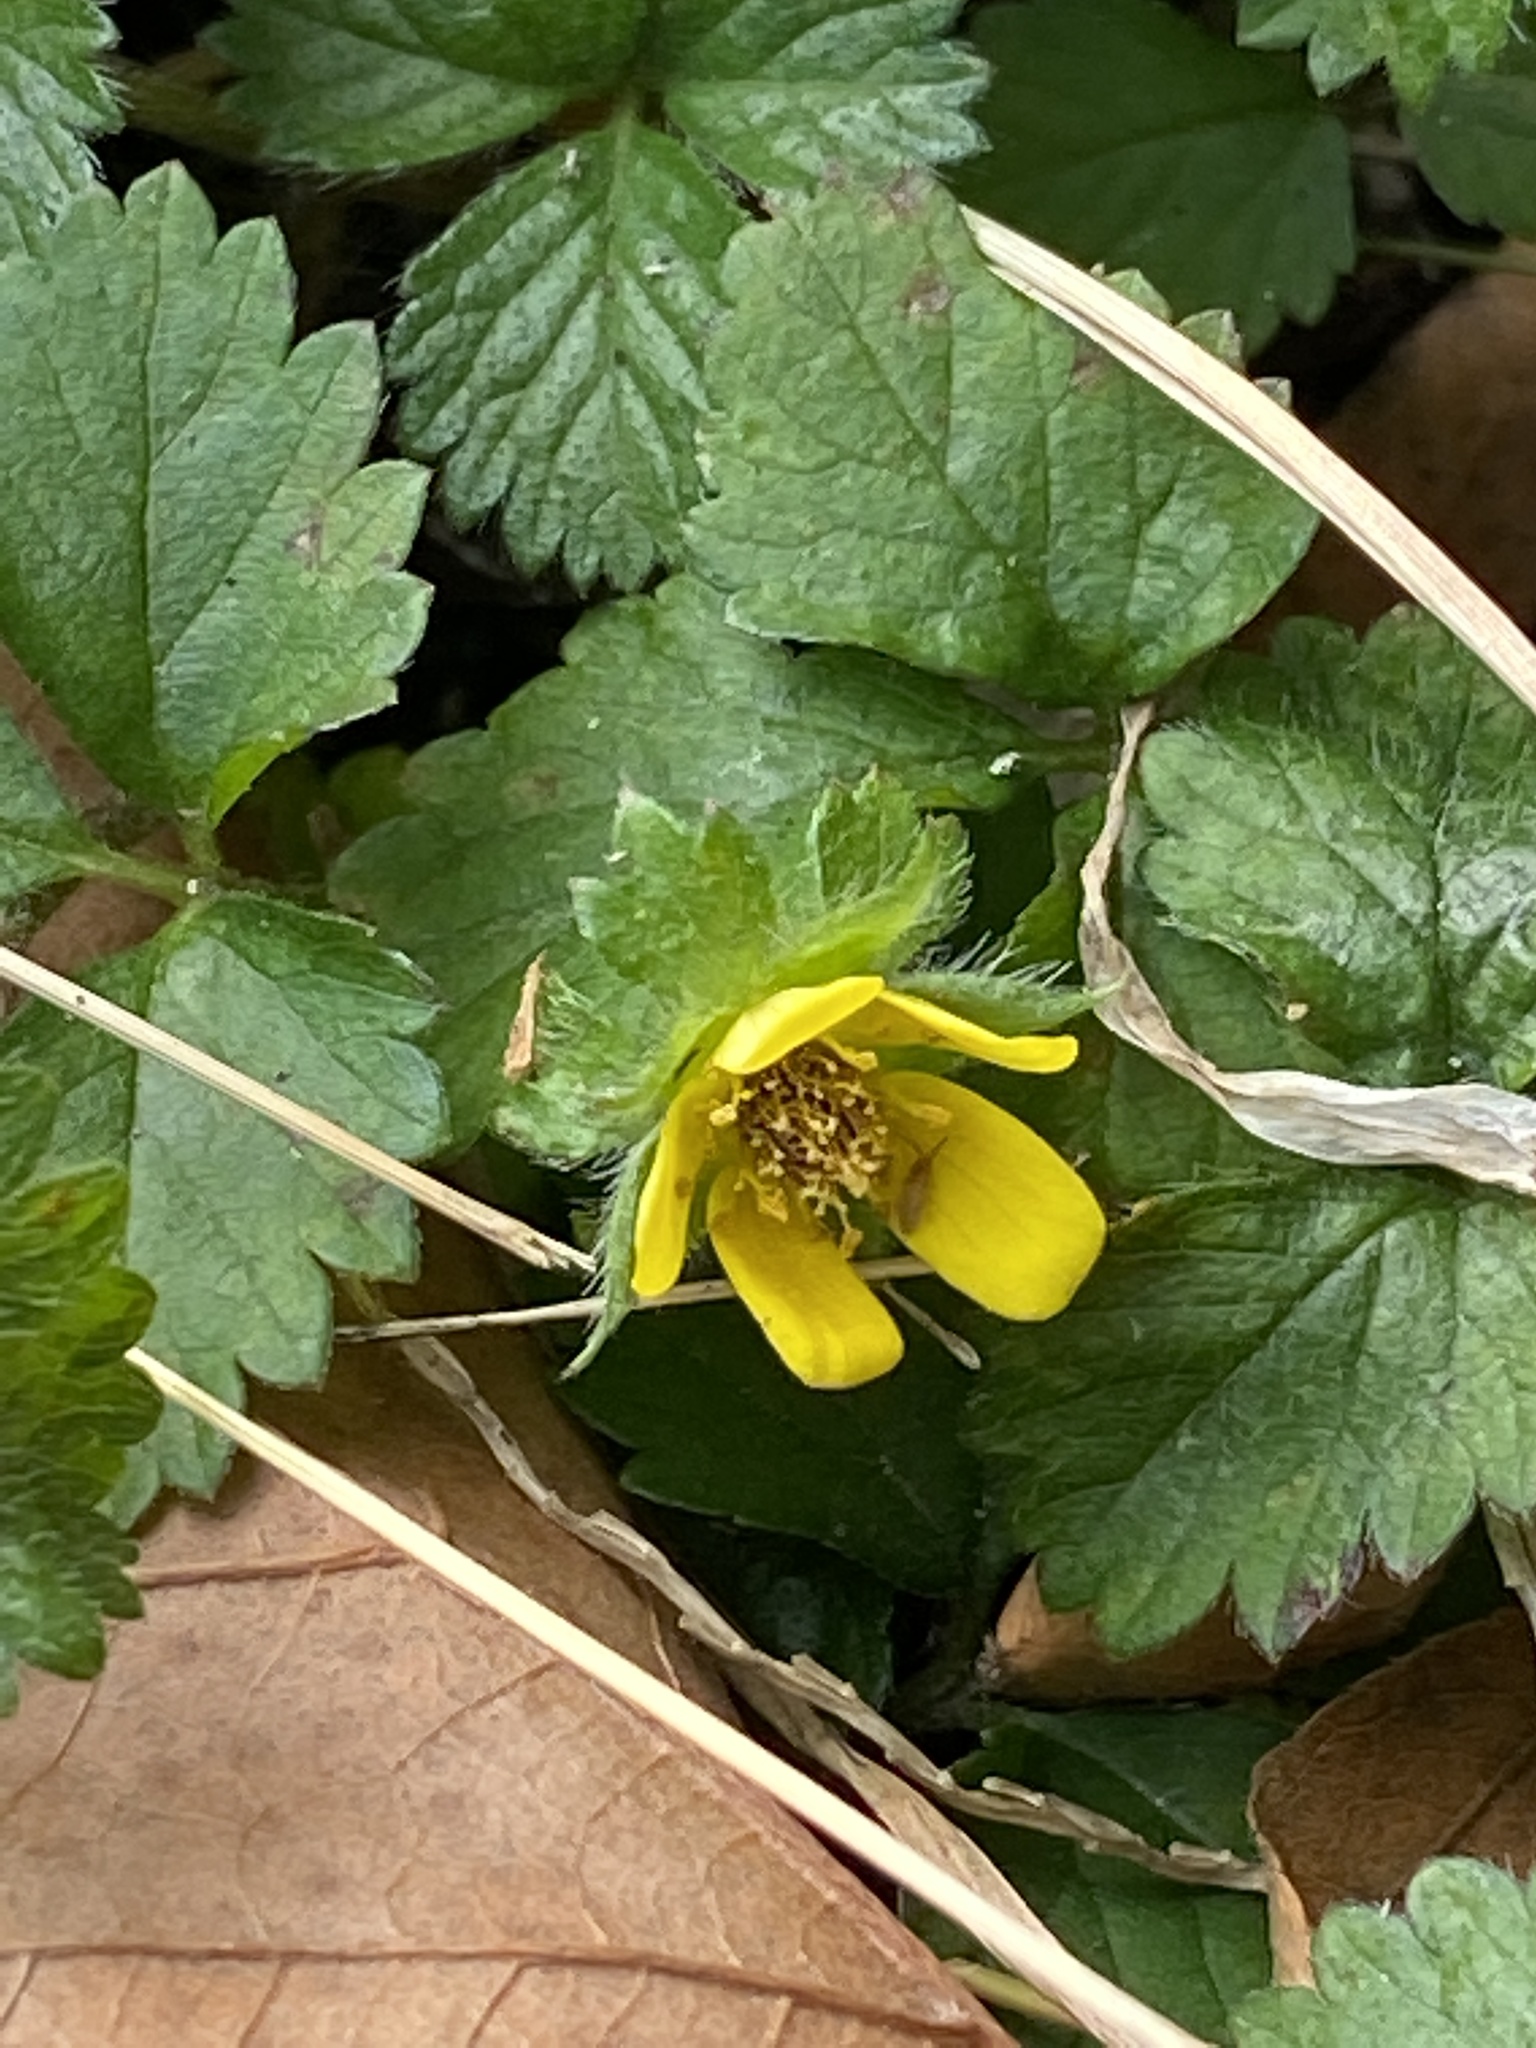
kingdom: Plantae
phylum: Tracheophyta
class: Magnoliopsida
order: Rosales
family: Rosaceae
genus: Potentilla
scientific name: Potentilla indica
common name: Yellow-flowered strawberry
